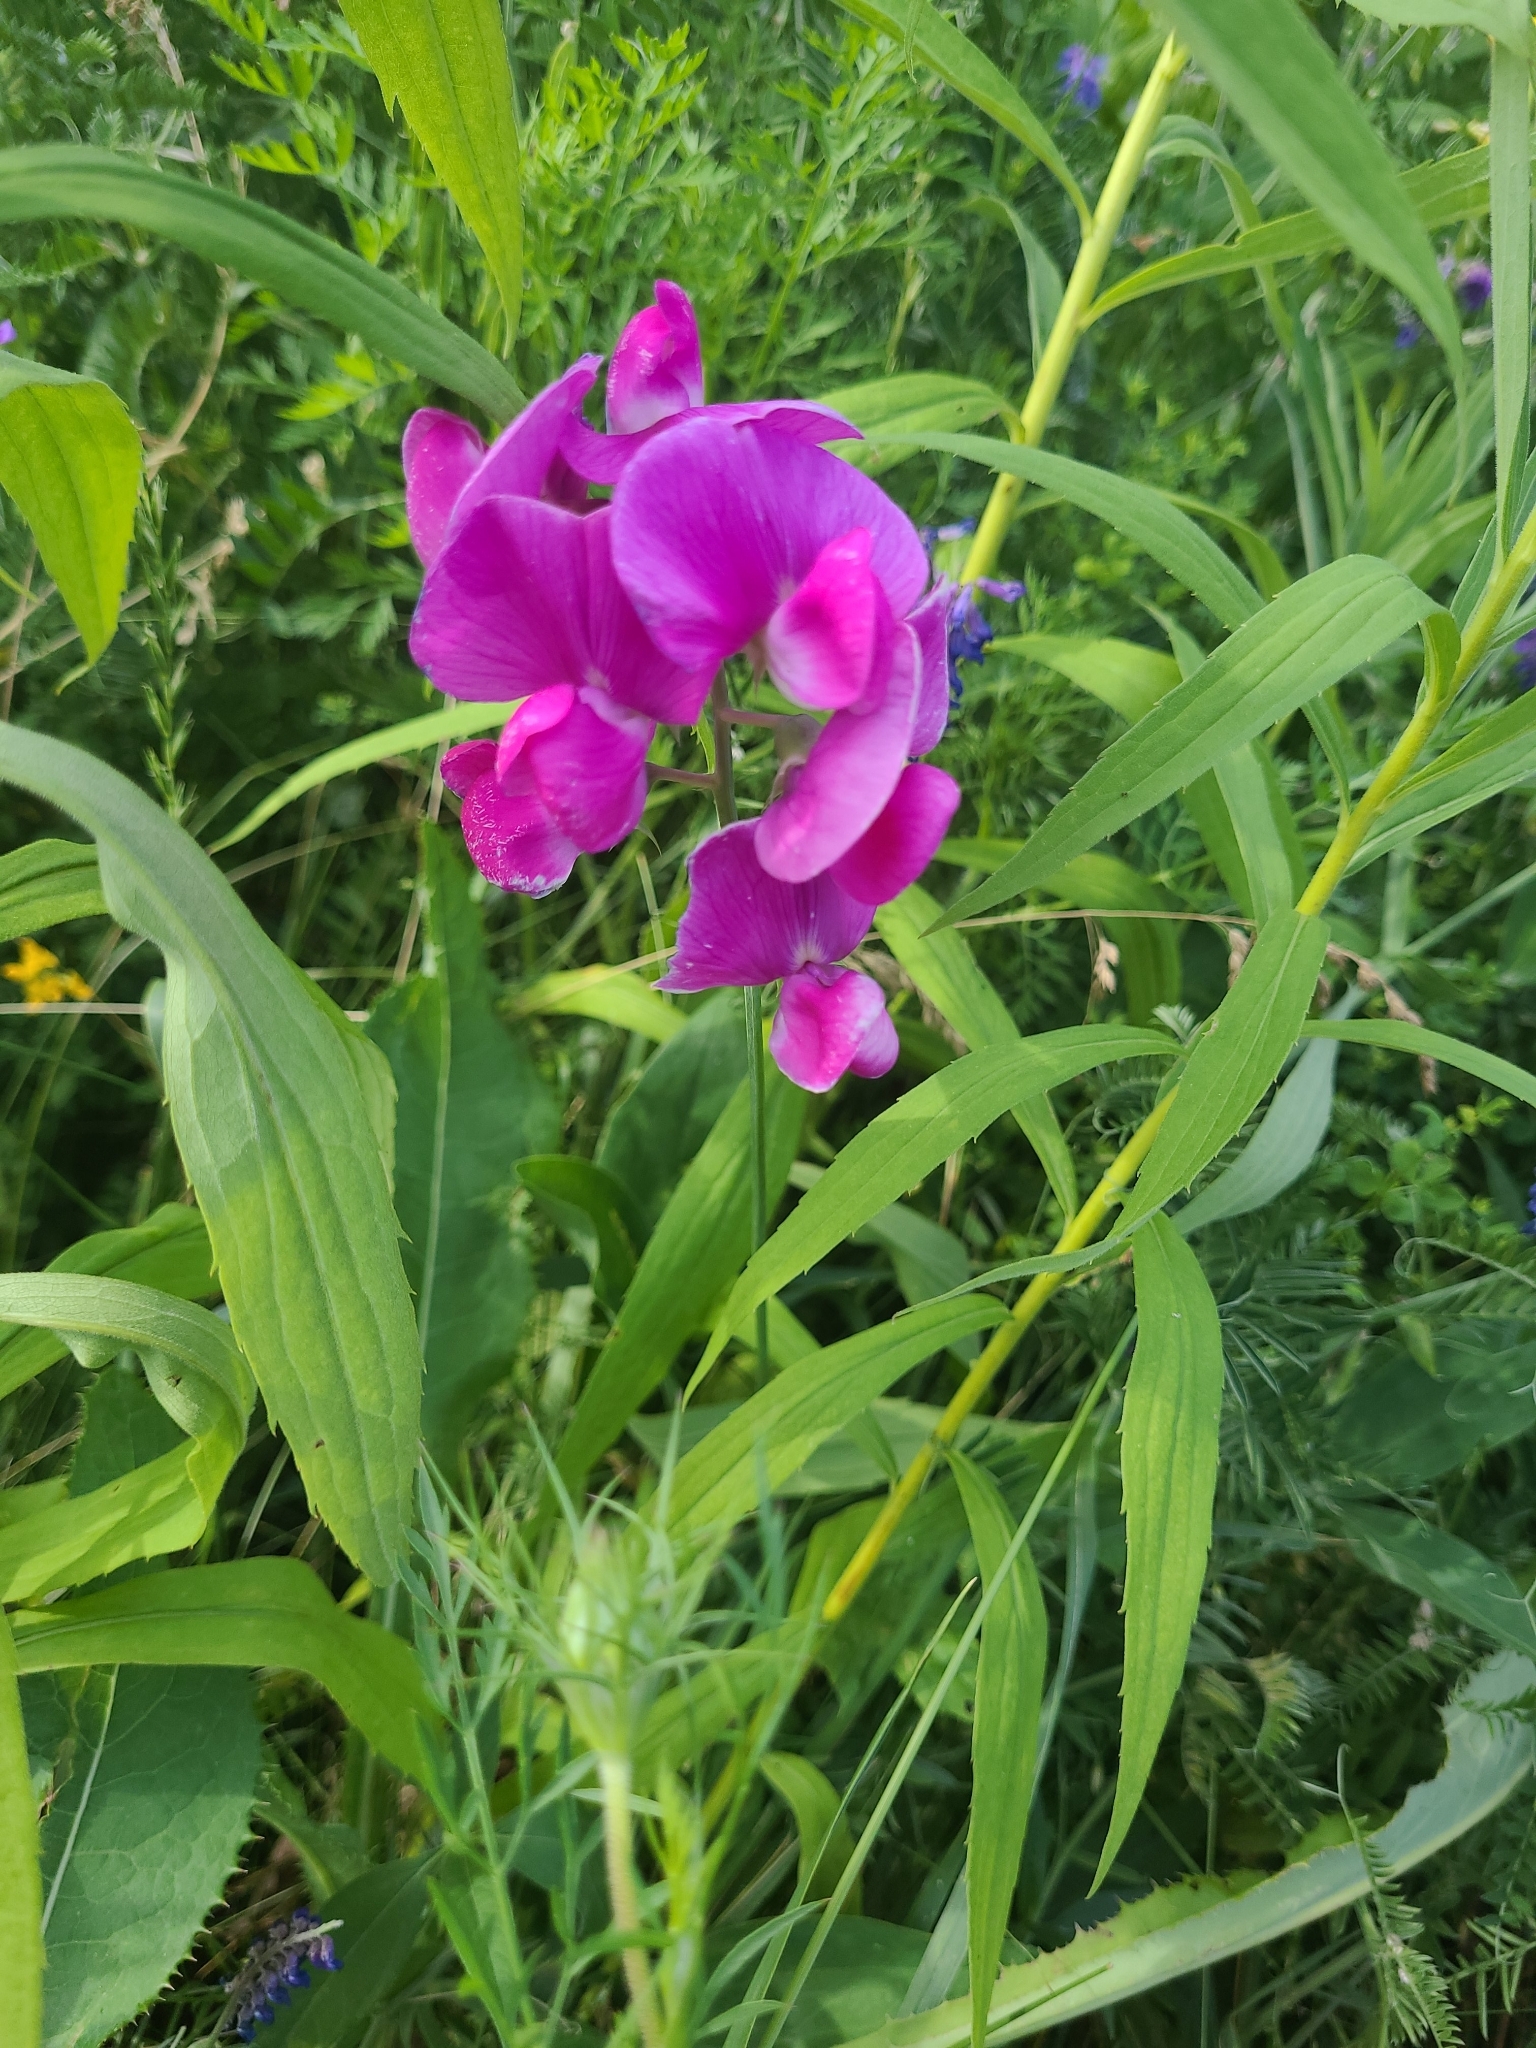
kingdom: Plantae
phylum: Tracheophyta
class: Magnoliopsida
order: Fabales
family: Fabaceae
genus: Lathyrus
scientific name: Lathyrus latifolius
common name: Perennial pea
